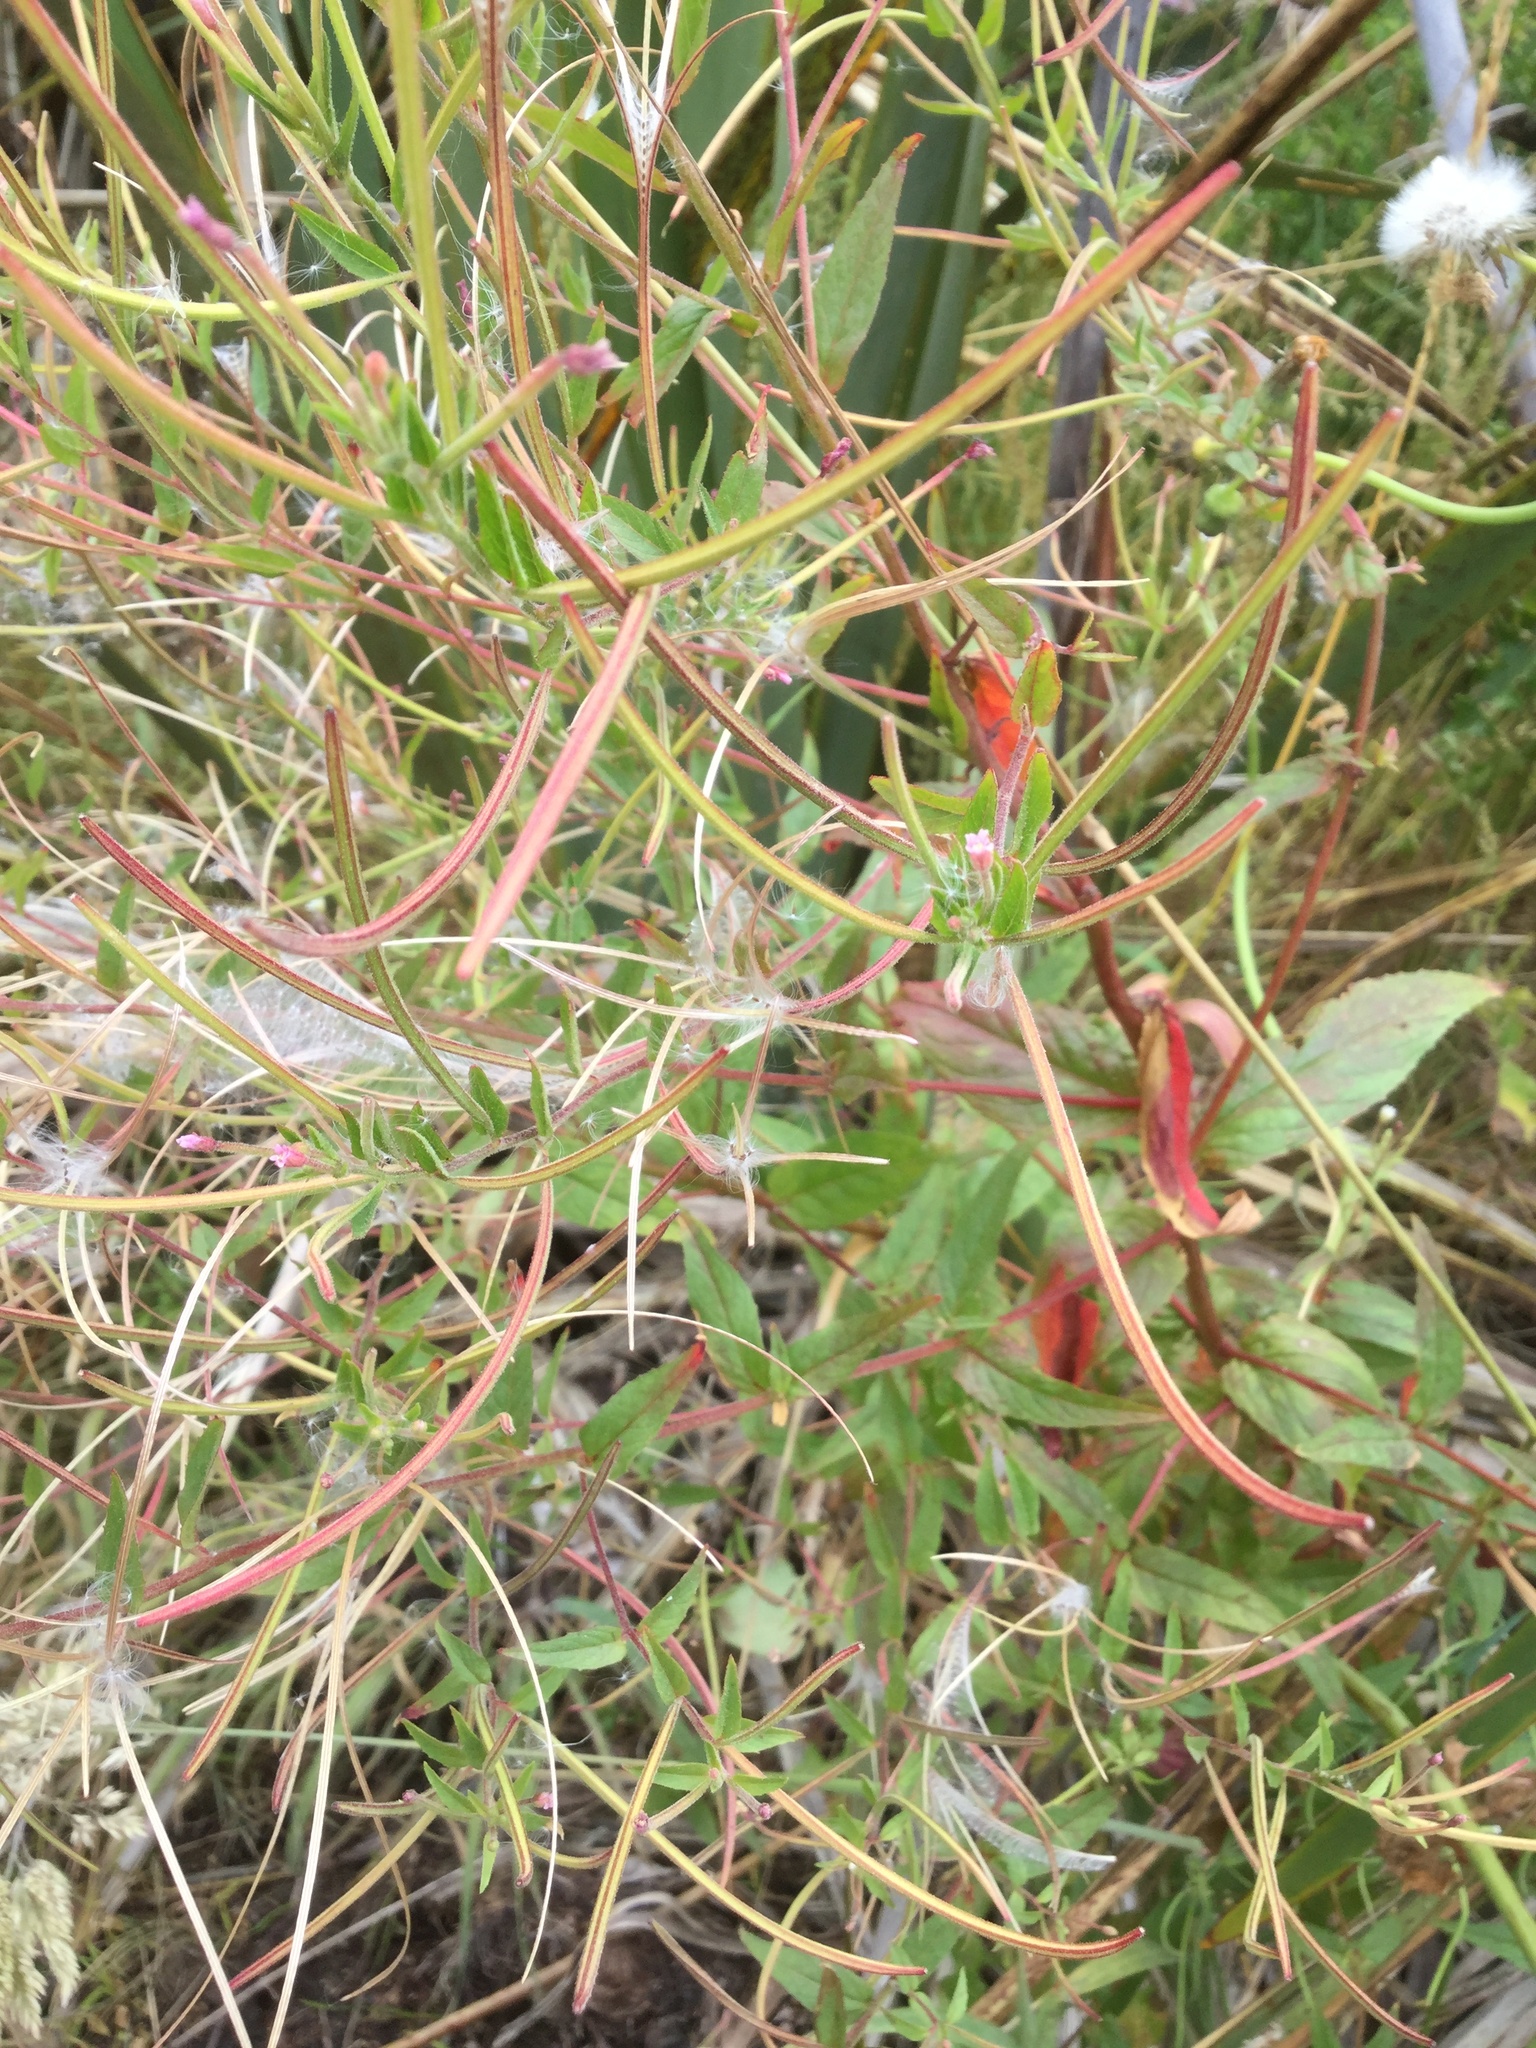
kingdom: Plantae
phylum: Tracheophyta
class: Magnoliopsida
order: Myrtales
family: Onagraceae
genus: Epilobium
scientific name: Epilobium ciliatum
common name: American willowherb
